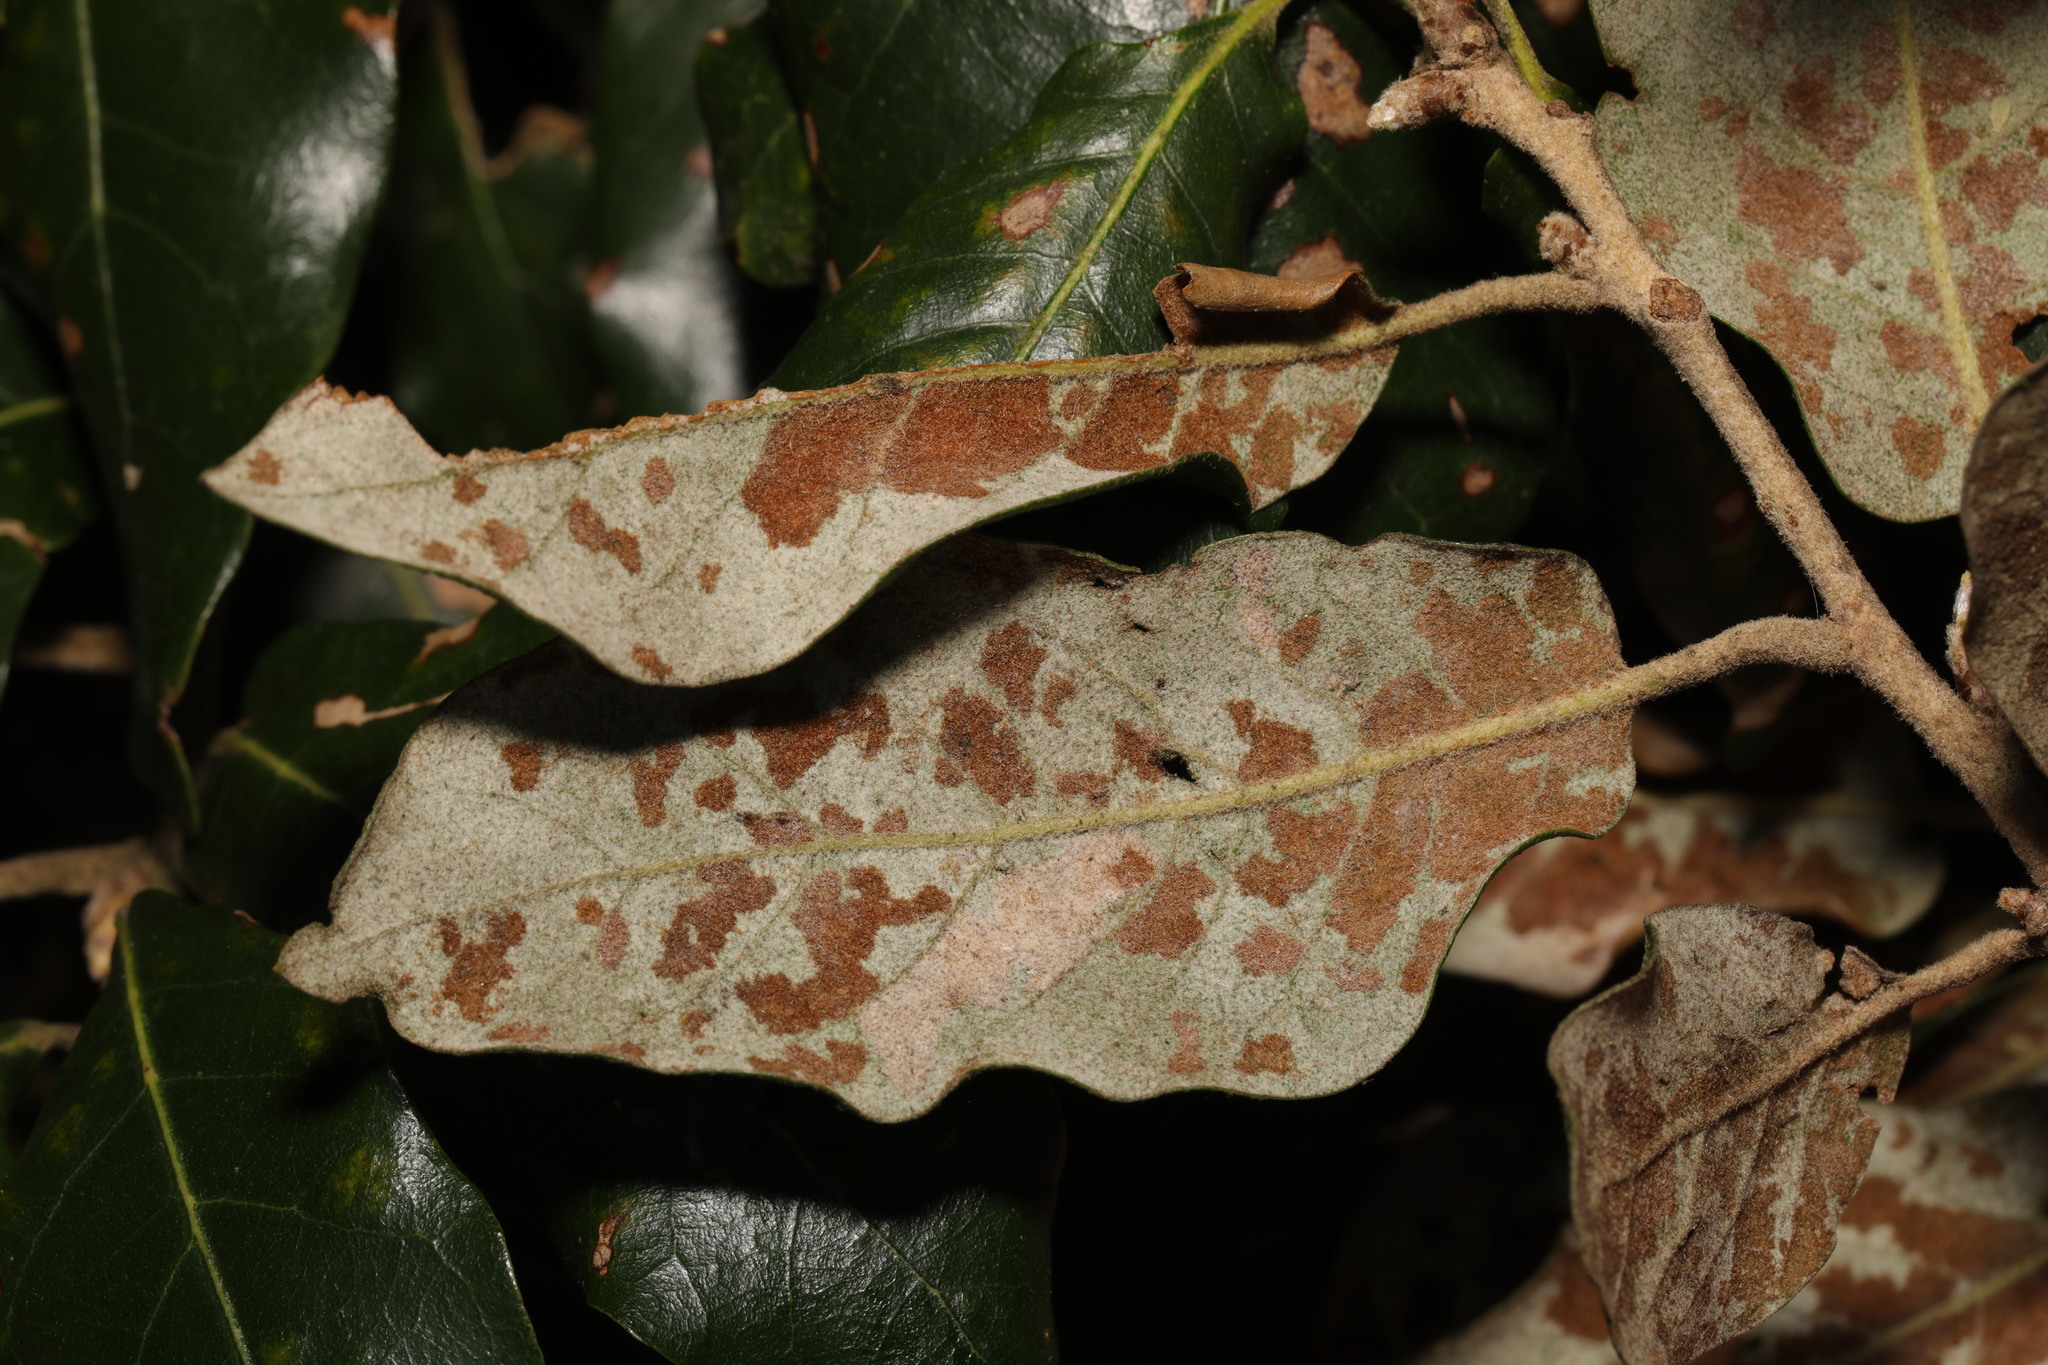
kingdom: Animalia
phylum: Arthropoda
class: Arachnida
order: Trombidiformes
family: Eriophyidae
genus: Aceria
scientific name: Aceria ilicis
